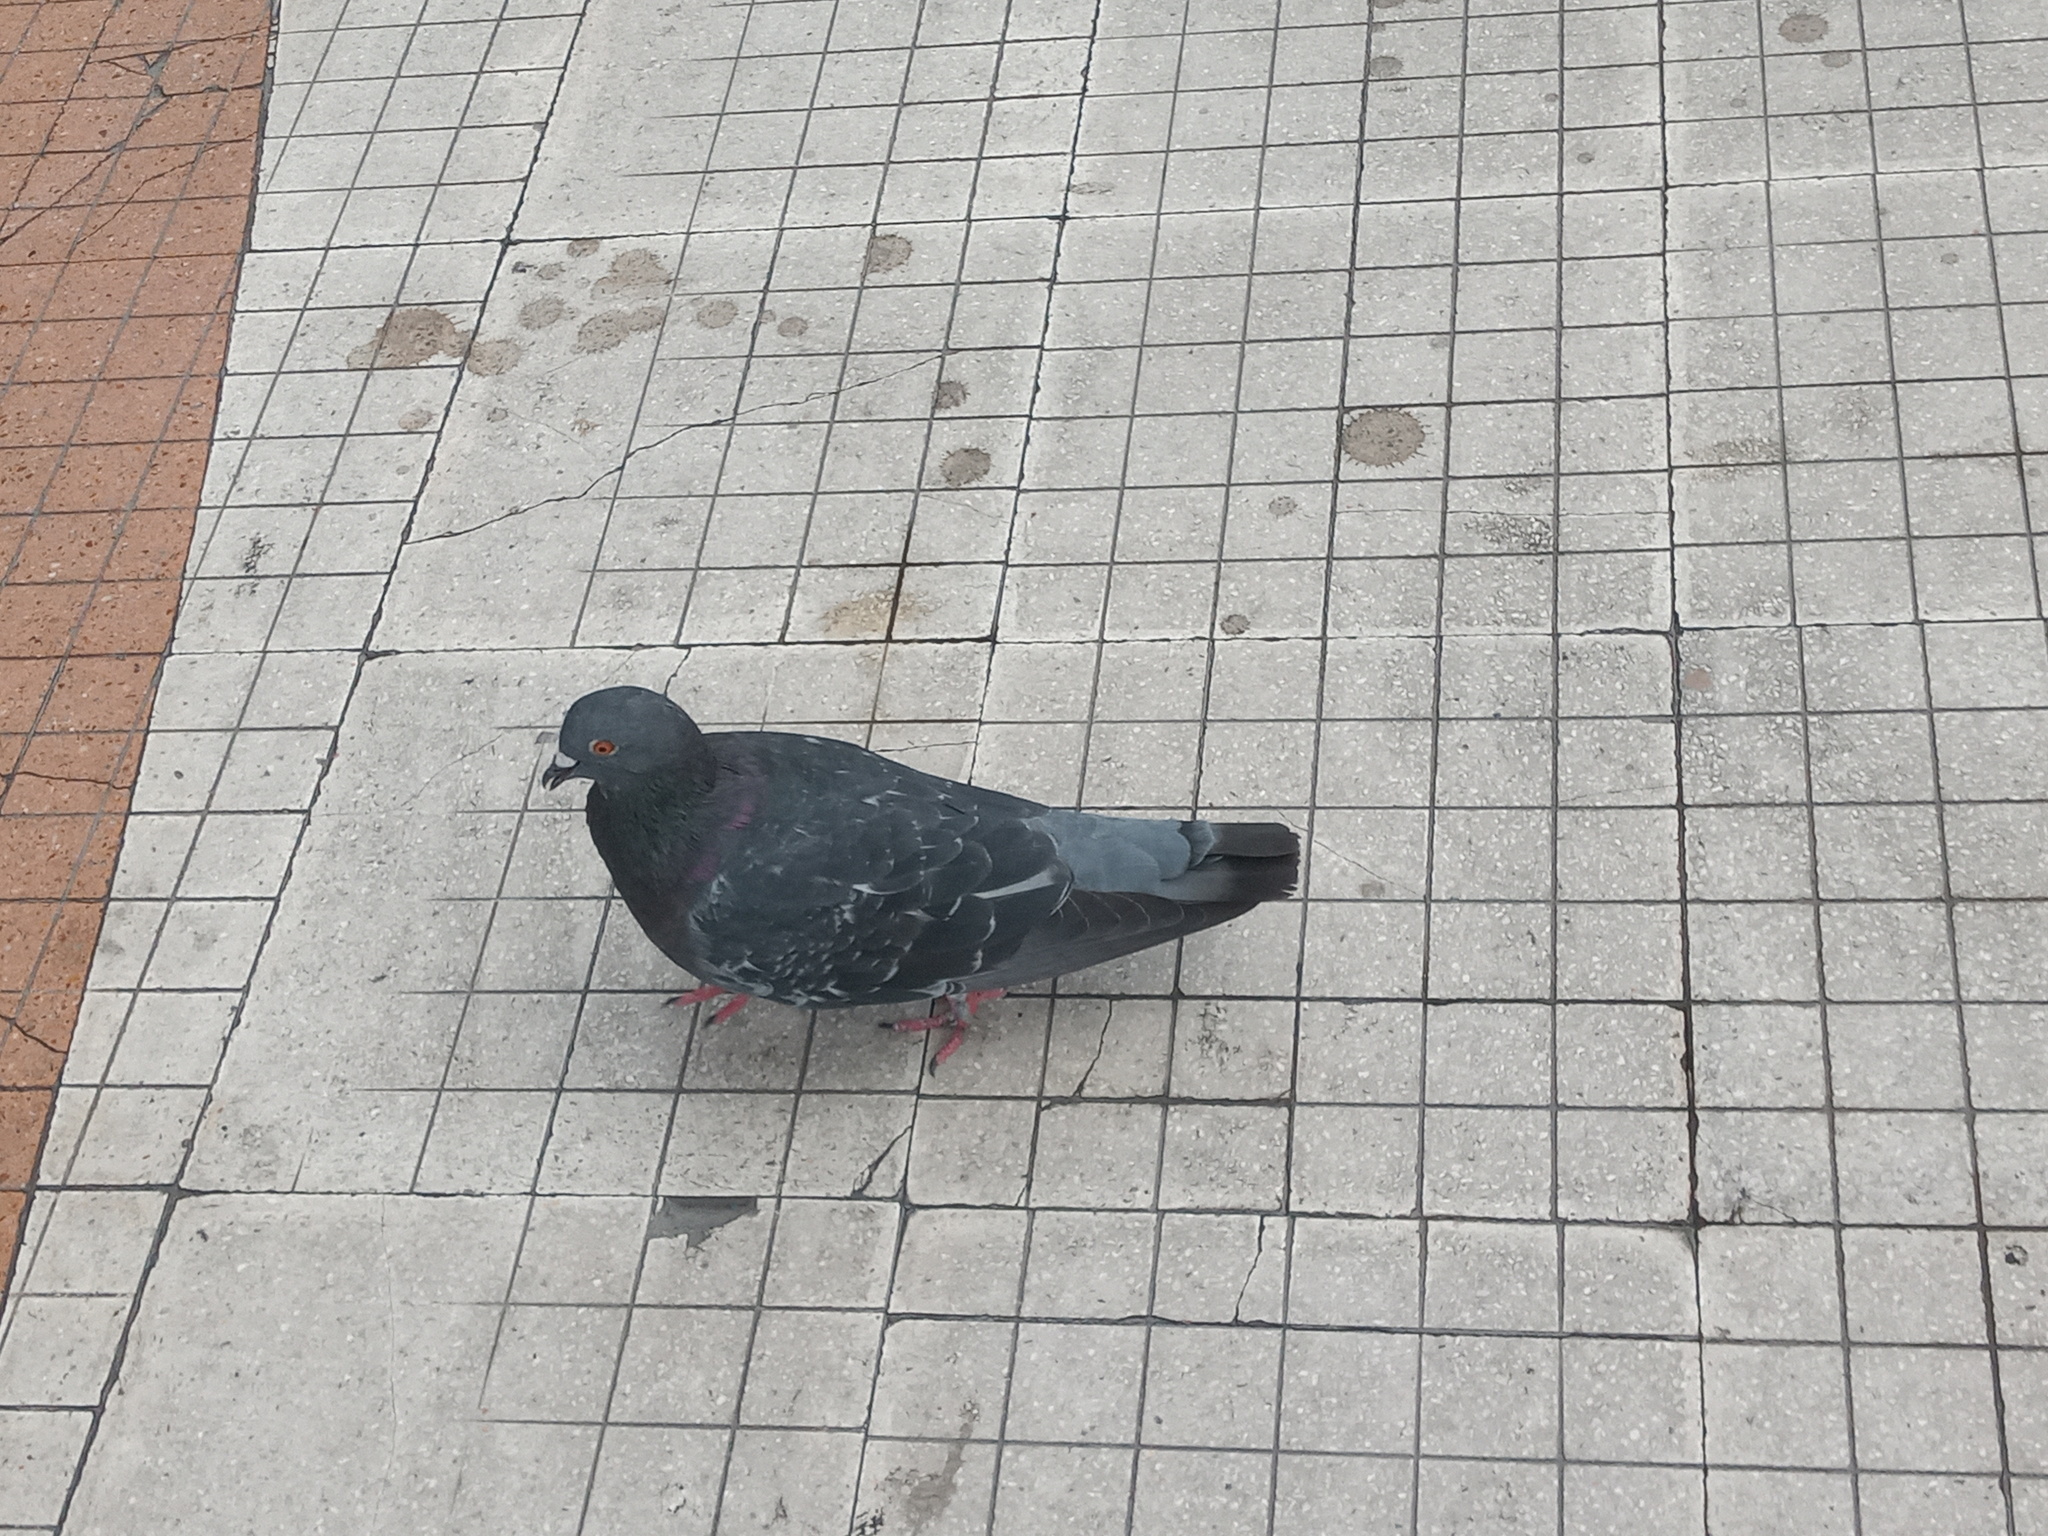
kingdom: Animalia
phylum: Chordata
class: Aves
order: Columbiformes
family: Columbidae
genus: Columba
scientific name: Columba livia
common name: Rock pigeon
